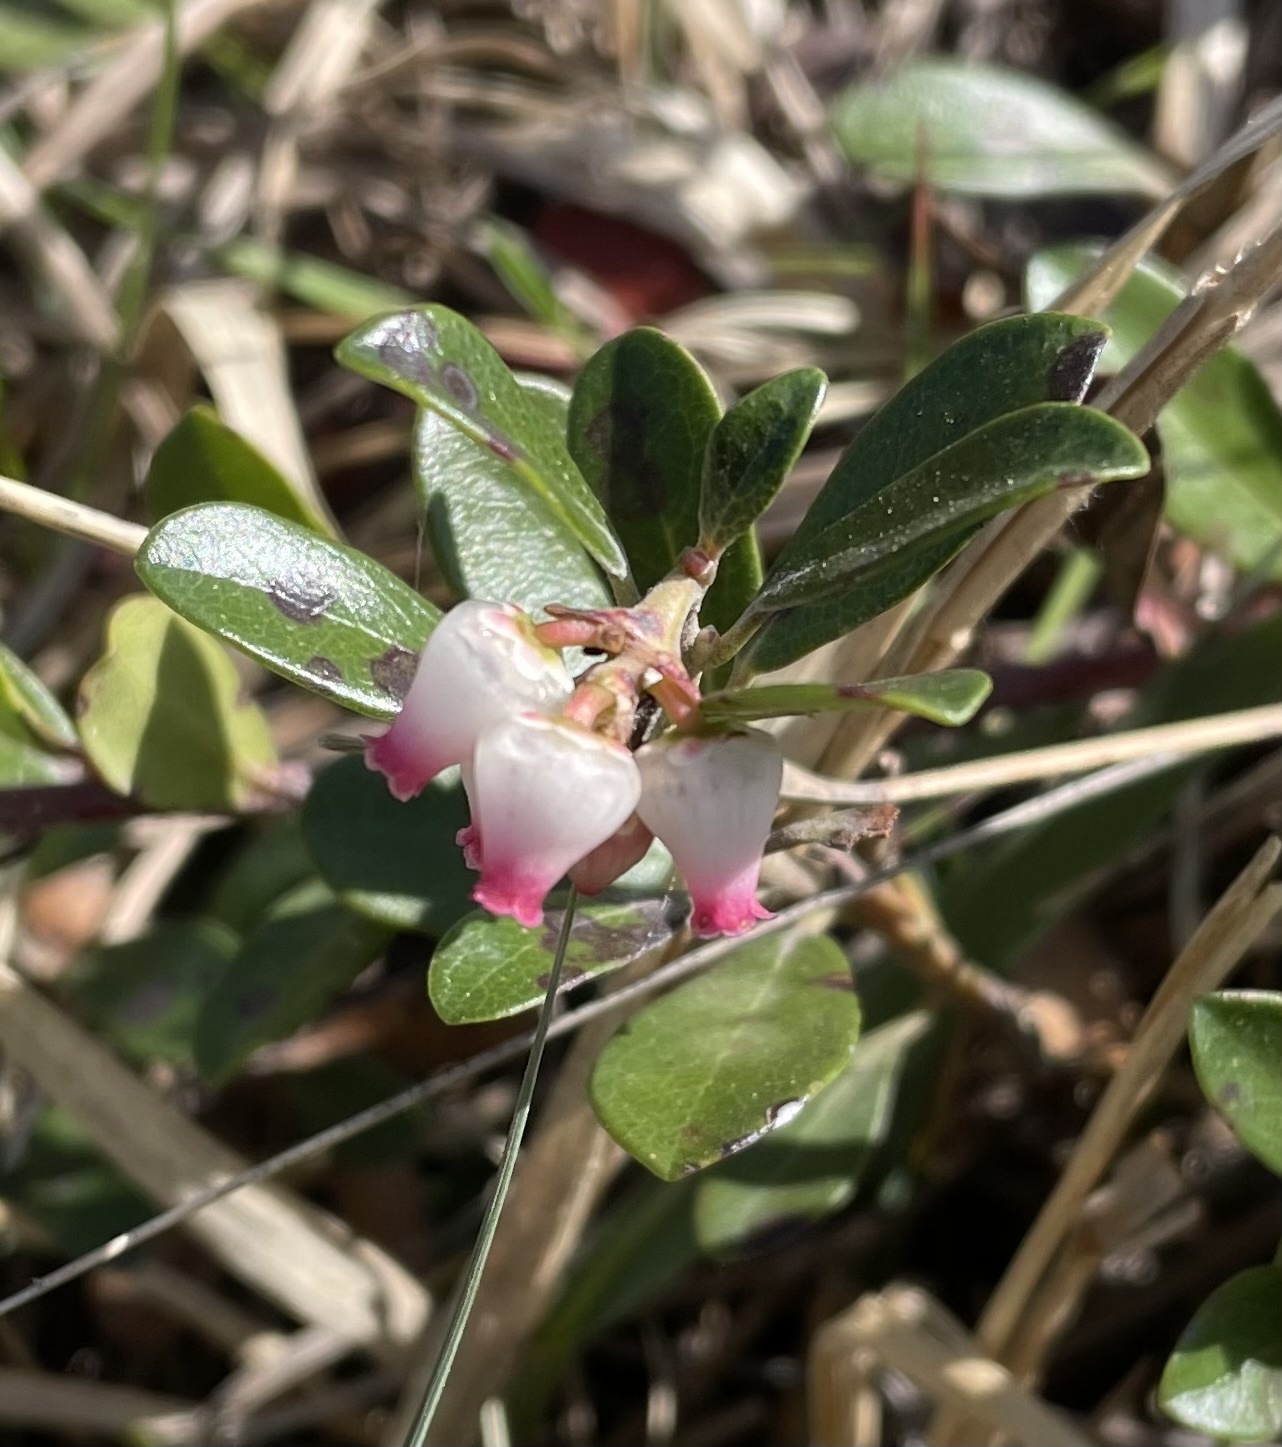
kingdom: Plantae
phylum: Tracheophyta
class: Magnoliopsida
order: Ericales
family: Ericaceae
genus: Arctostaphylos
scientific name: Arctostaphylos uva-ursi
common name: Bearberry
